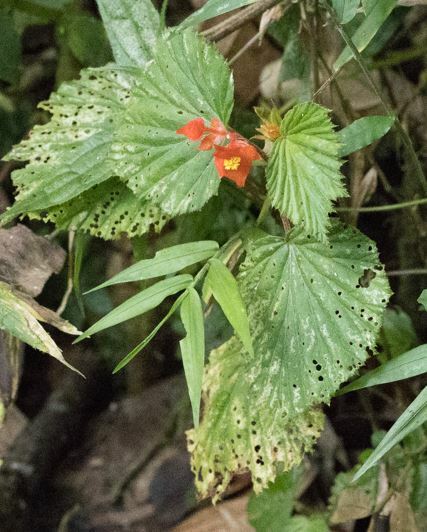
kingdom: Plantae
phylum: Tracheophyta
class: Magnoliopsida
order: Cucurbitales
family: Begoniaceae
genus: Begonia
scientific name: Begonia lophoptera
